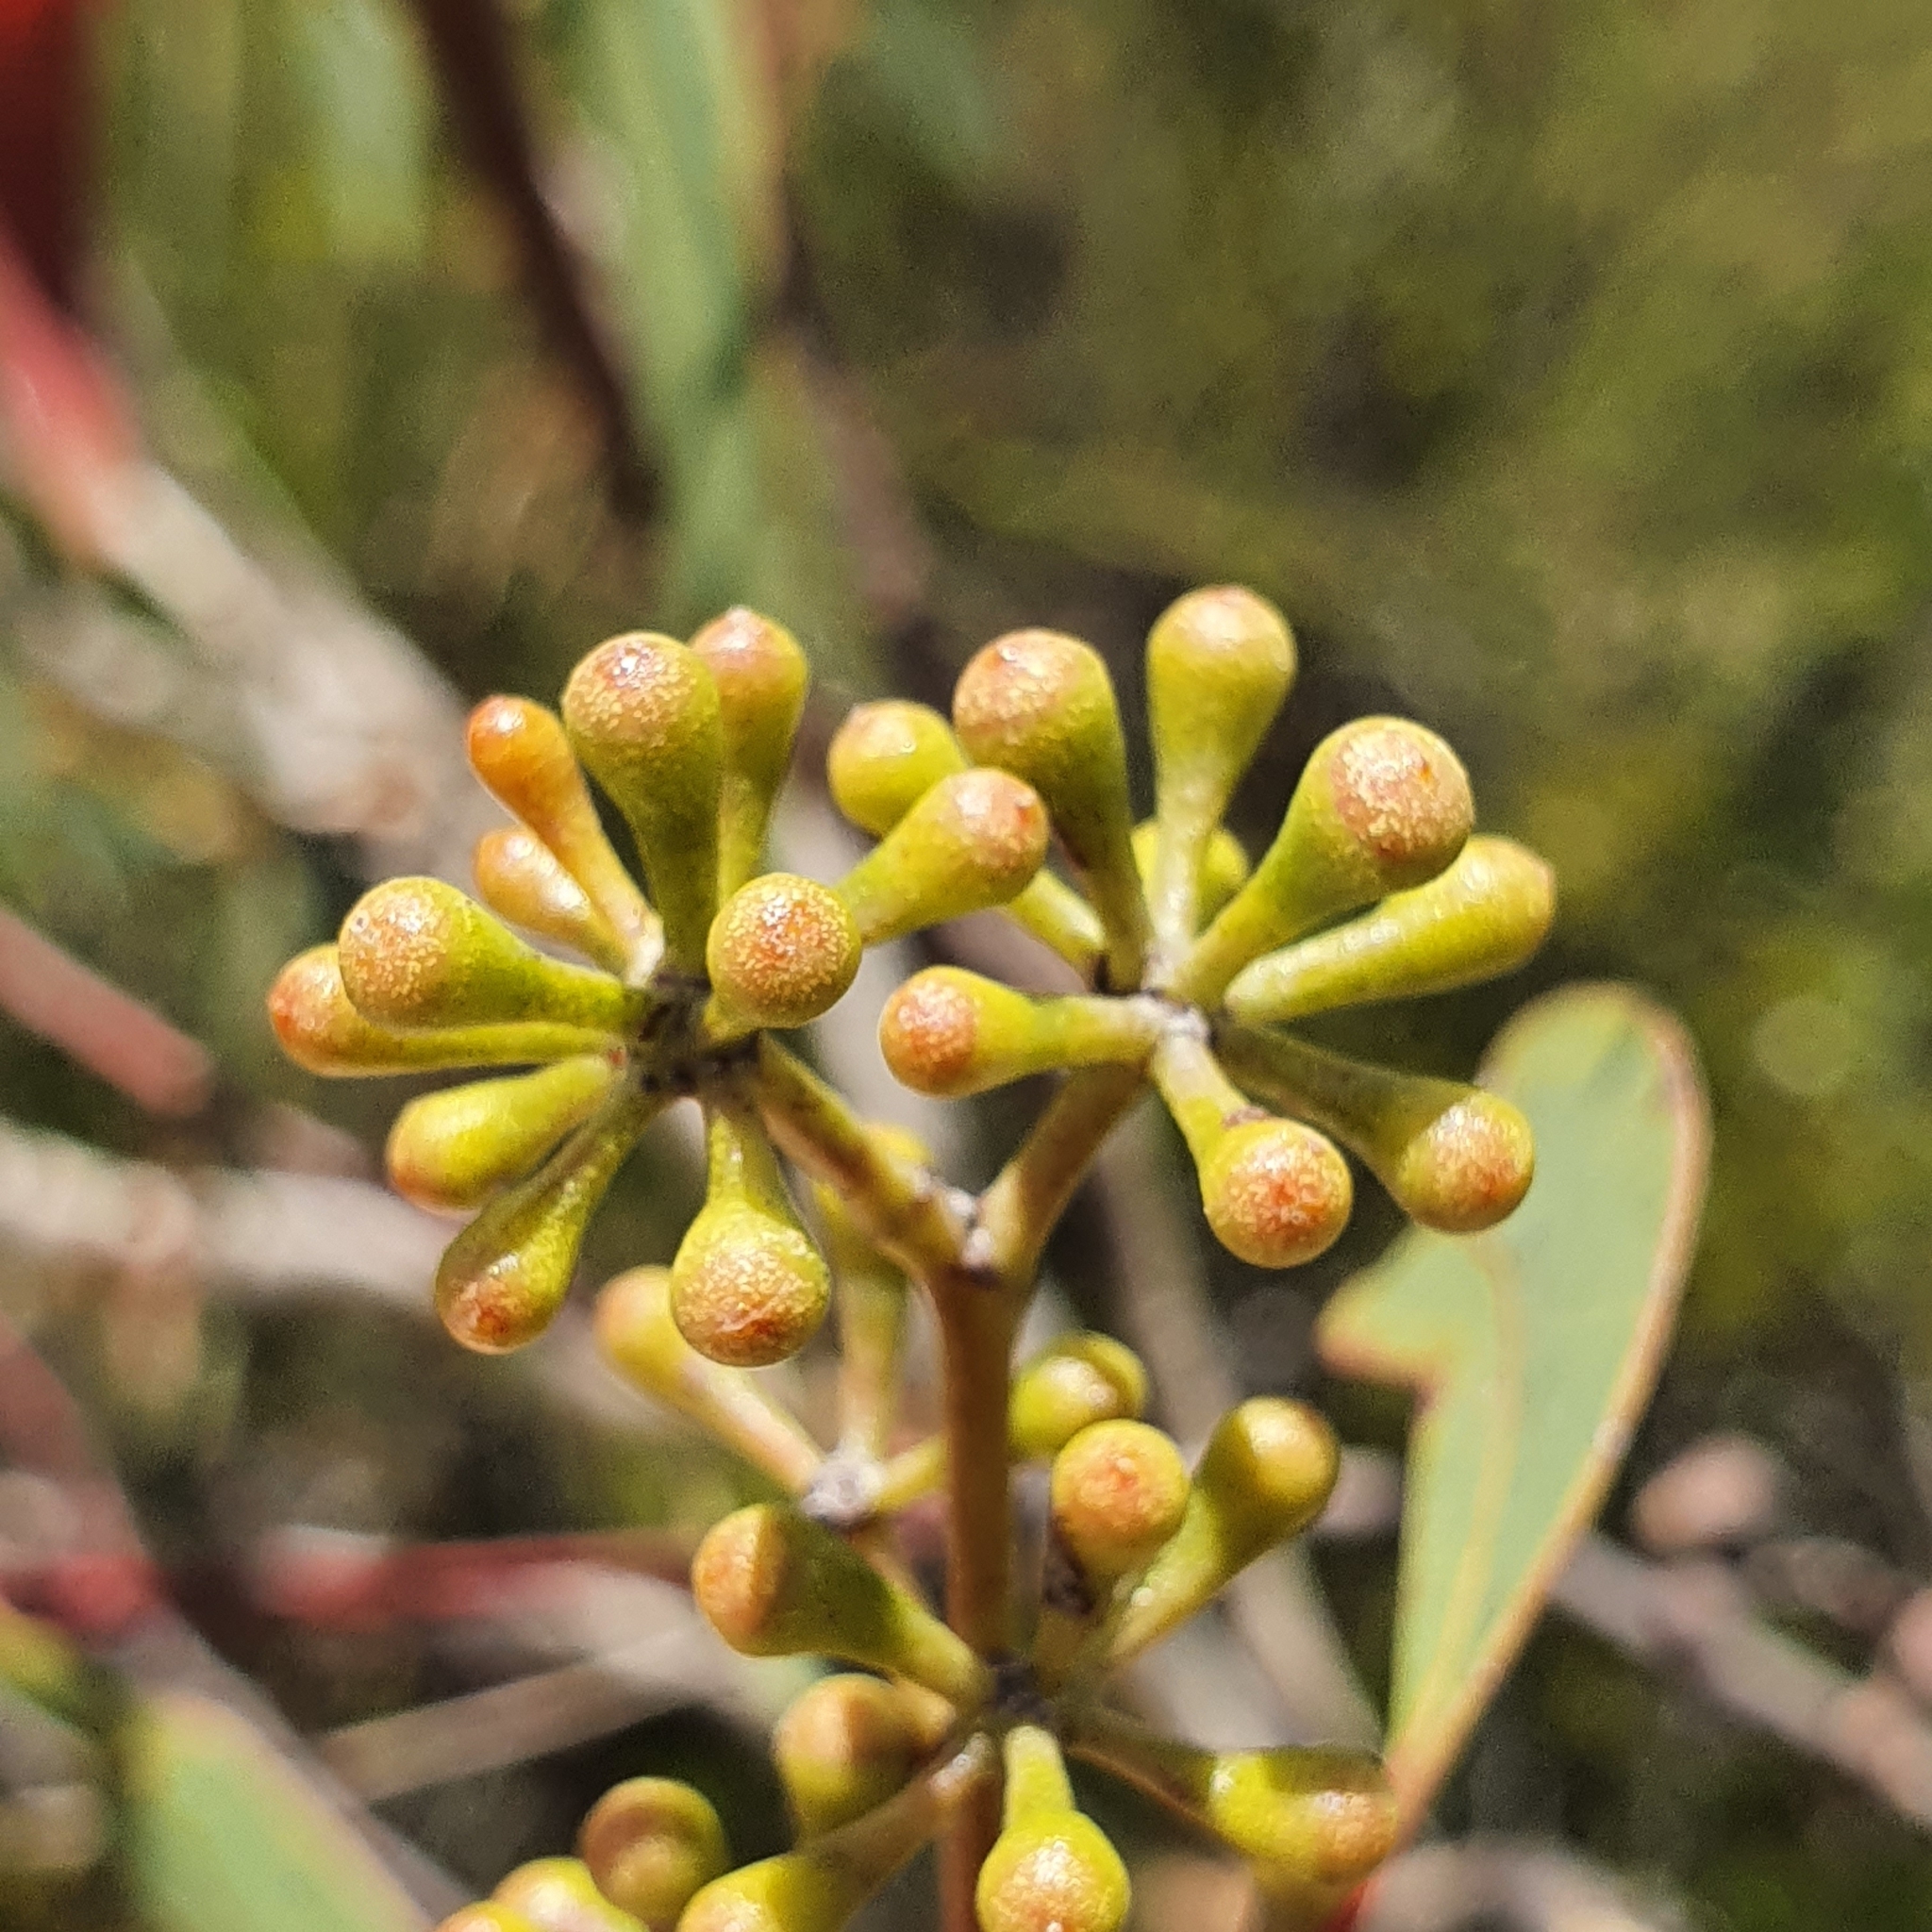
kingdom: Plantae
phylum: Tracheophyta
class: Magnoliopsida
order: Myrtales
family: Myrtaceae
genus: Eucalyptus
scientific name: Eucalyptus racemosa
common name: Scribbly gum
